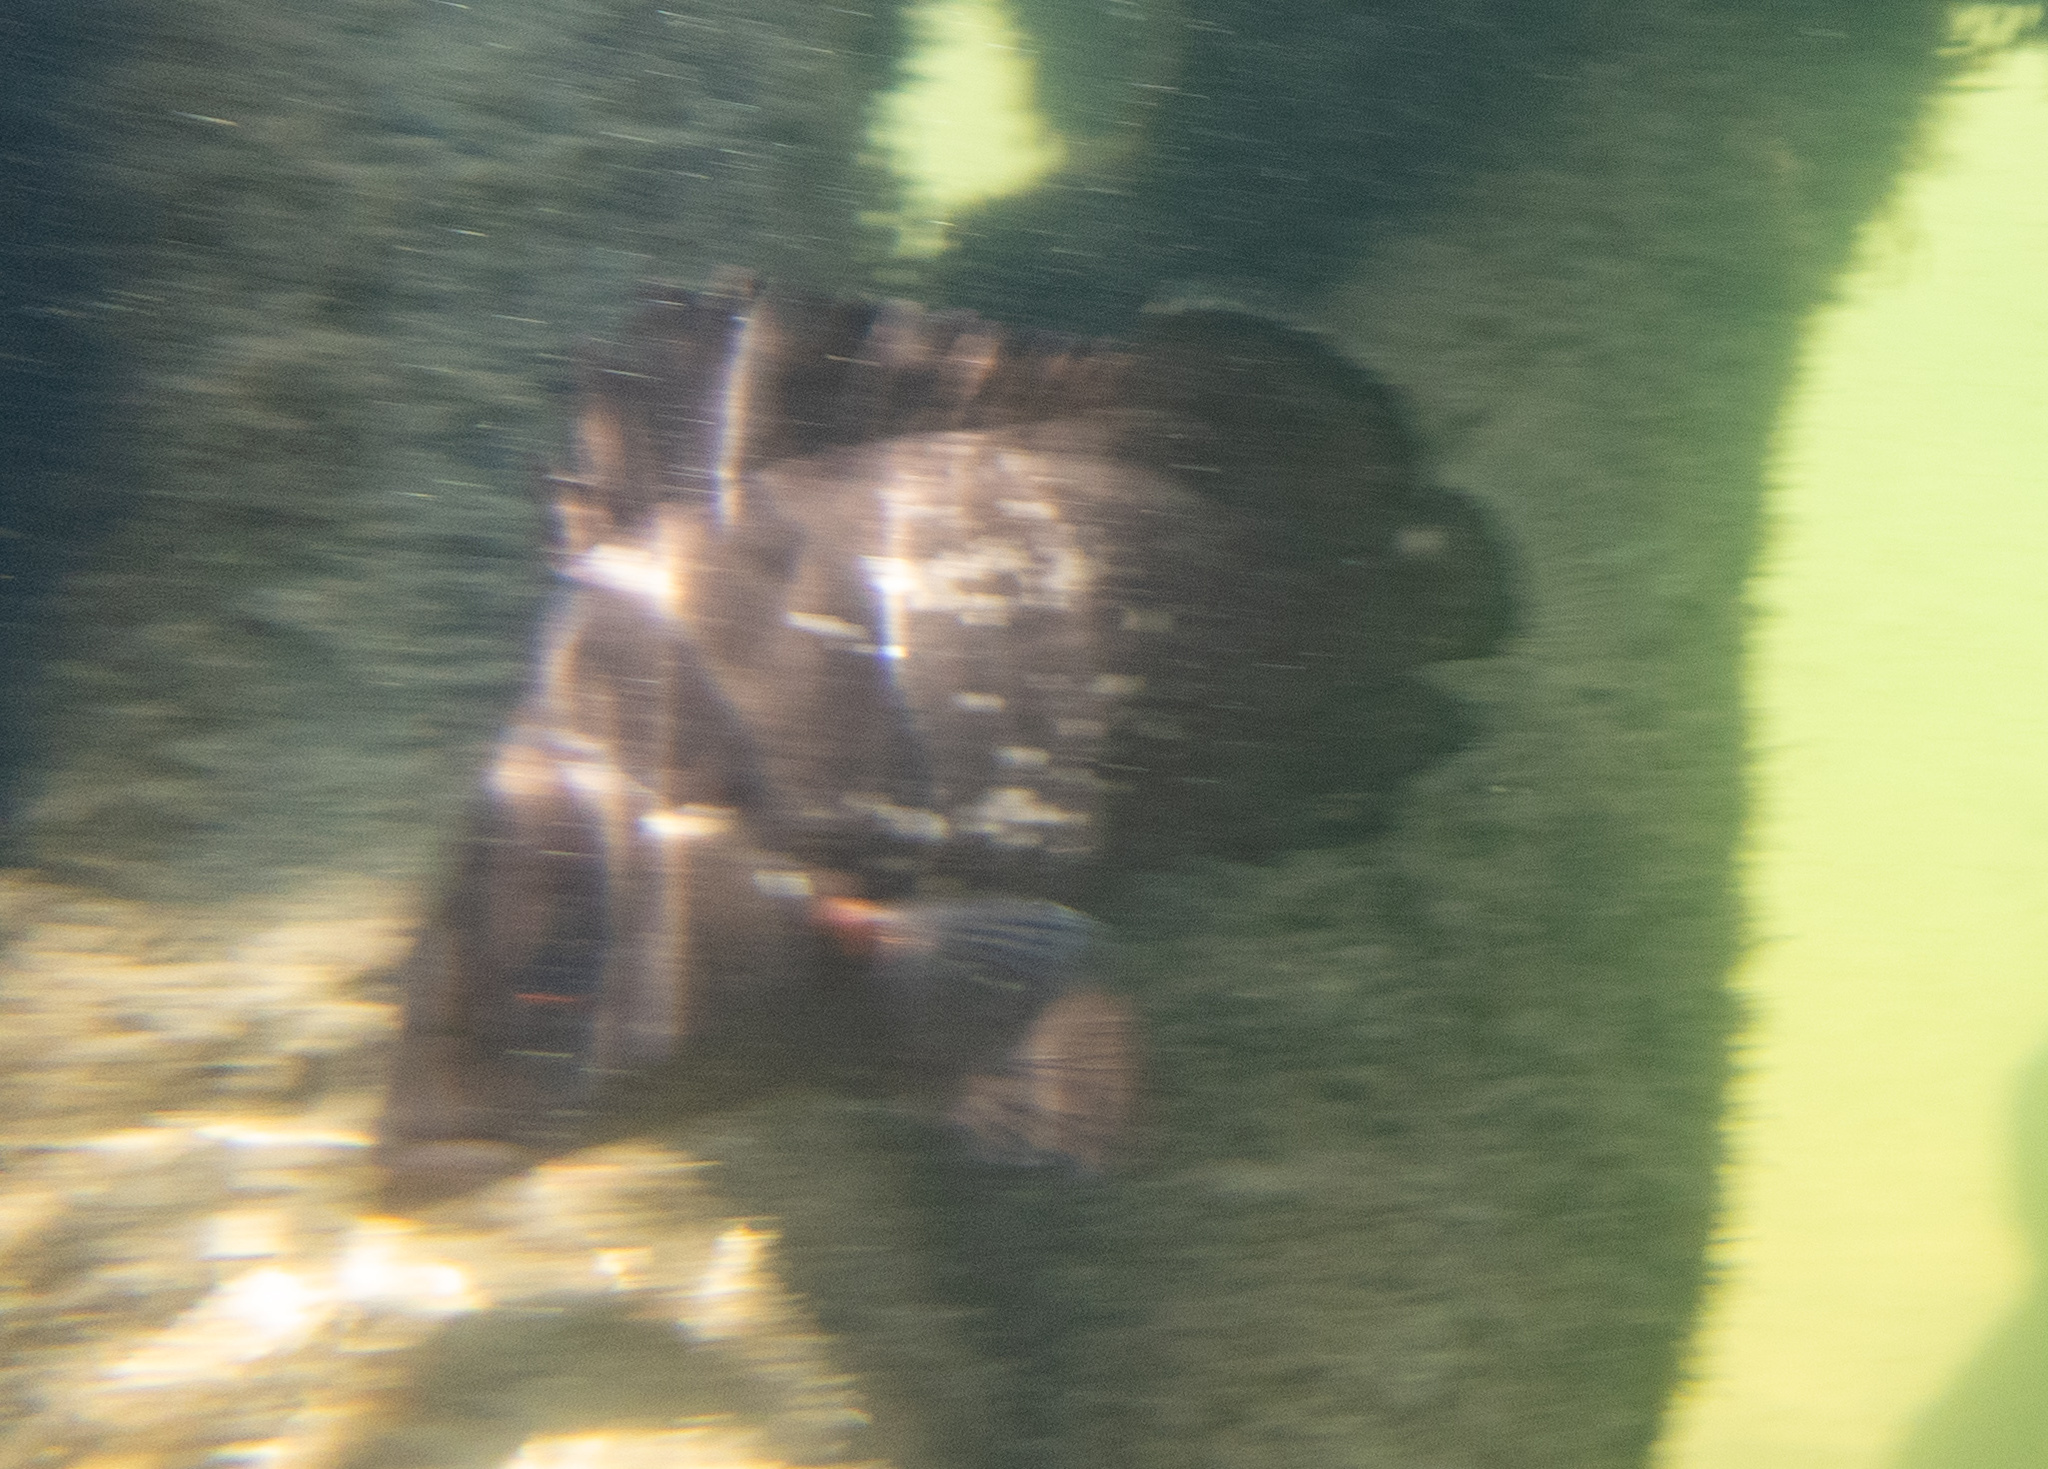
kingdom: Animalia
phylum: Chordata
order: Perciformes
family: Haemulidae
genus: Plectorhinchus
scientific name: Plectorhinchus gibbosus
